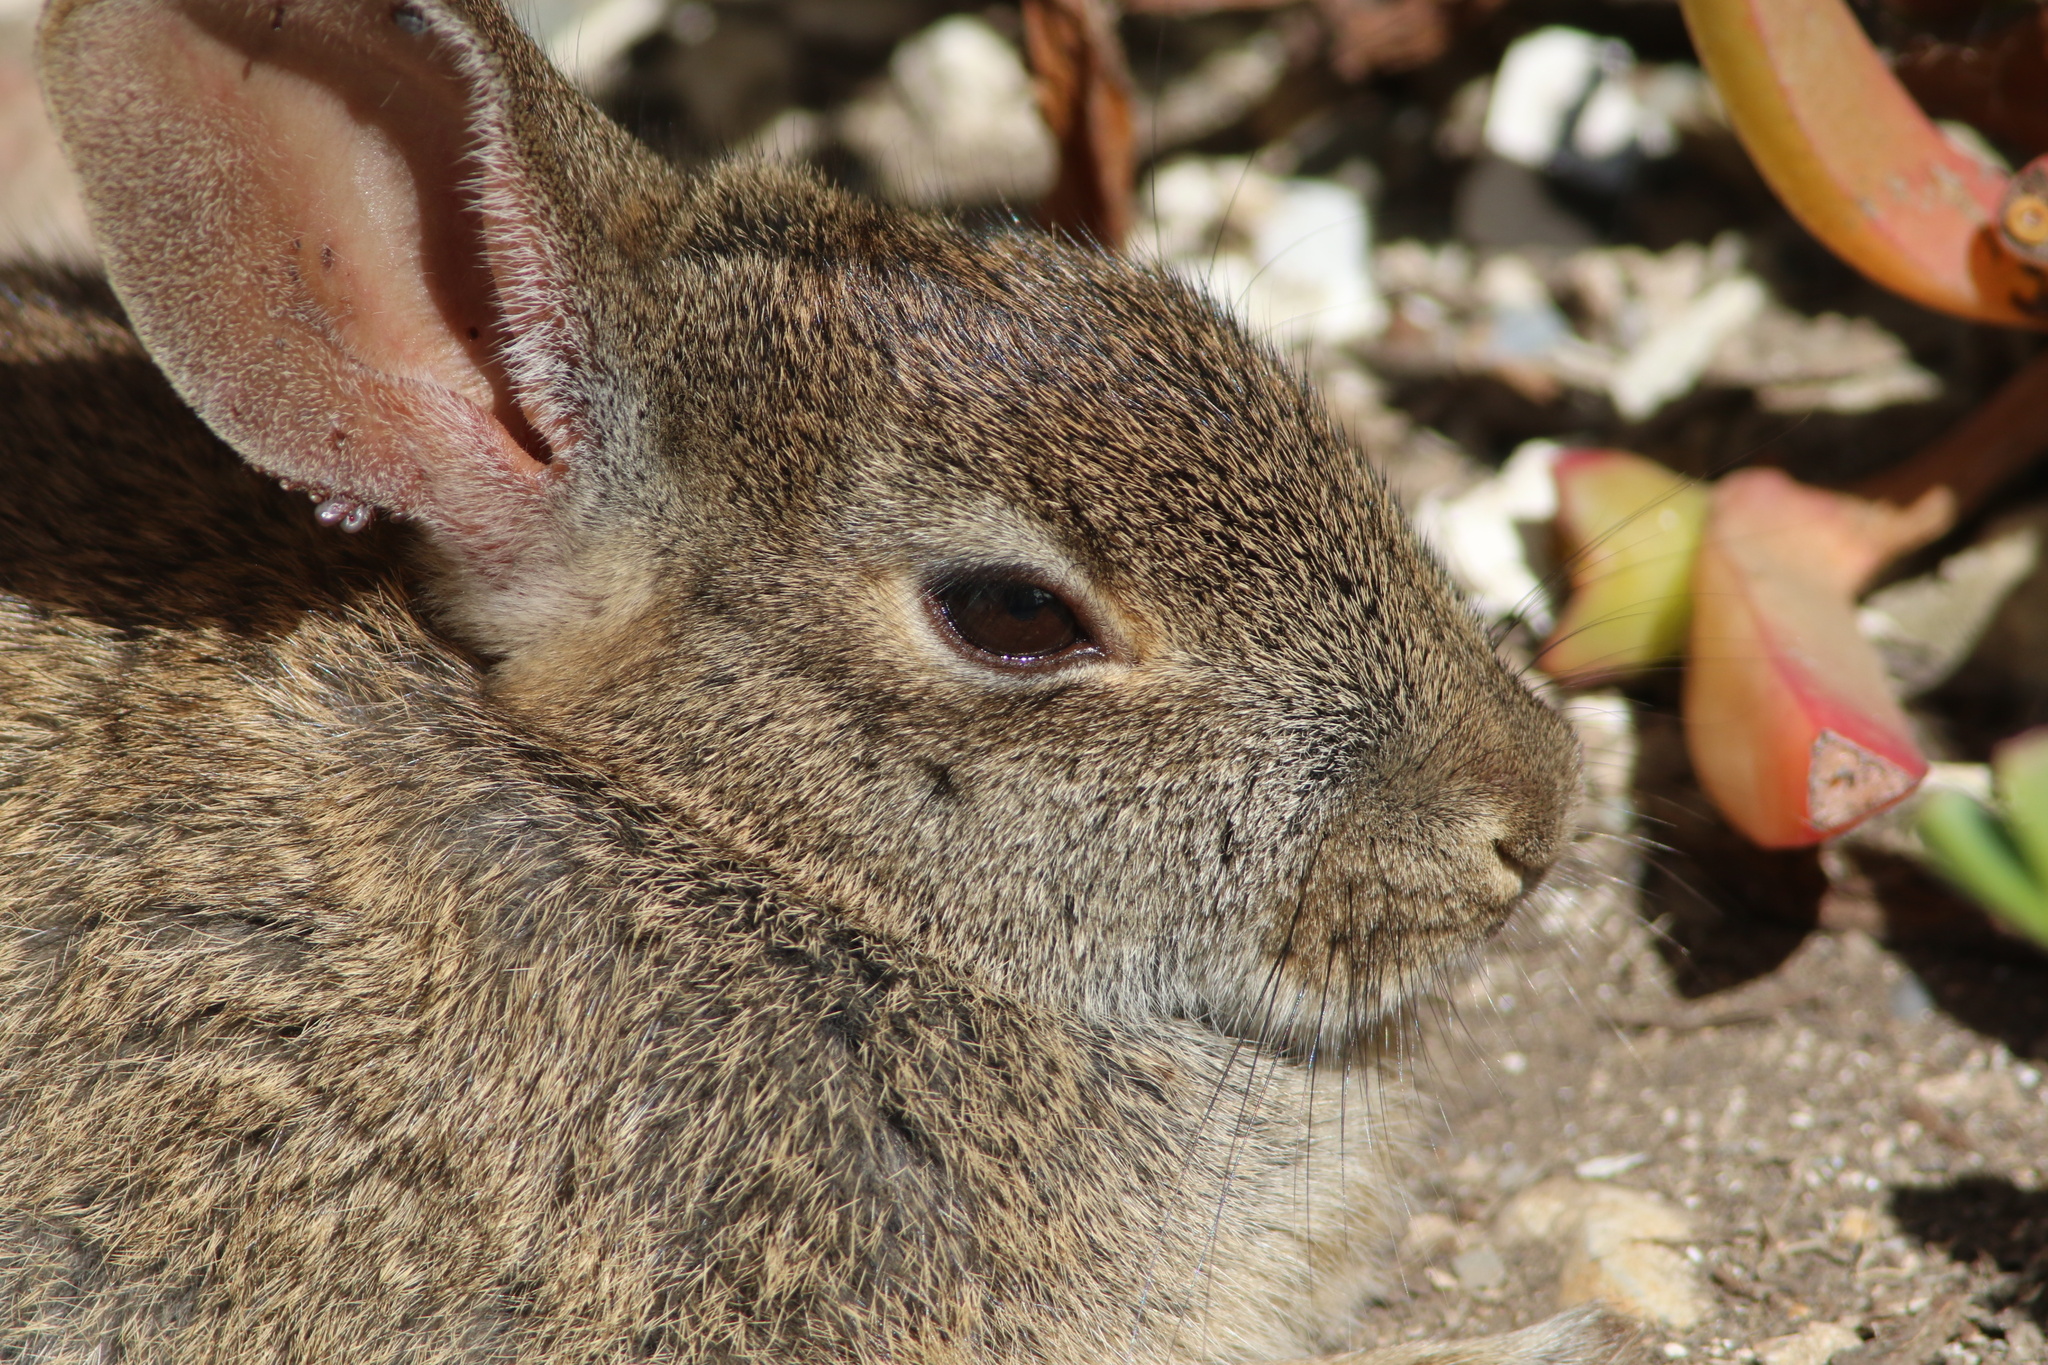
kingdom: Animalia
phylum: Chordata
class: Mammalia
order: Lagomorpha
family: Leporidae
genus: Sylvilagus
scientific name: Sylvilagus bachmani
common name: Brush rabbit
